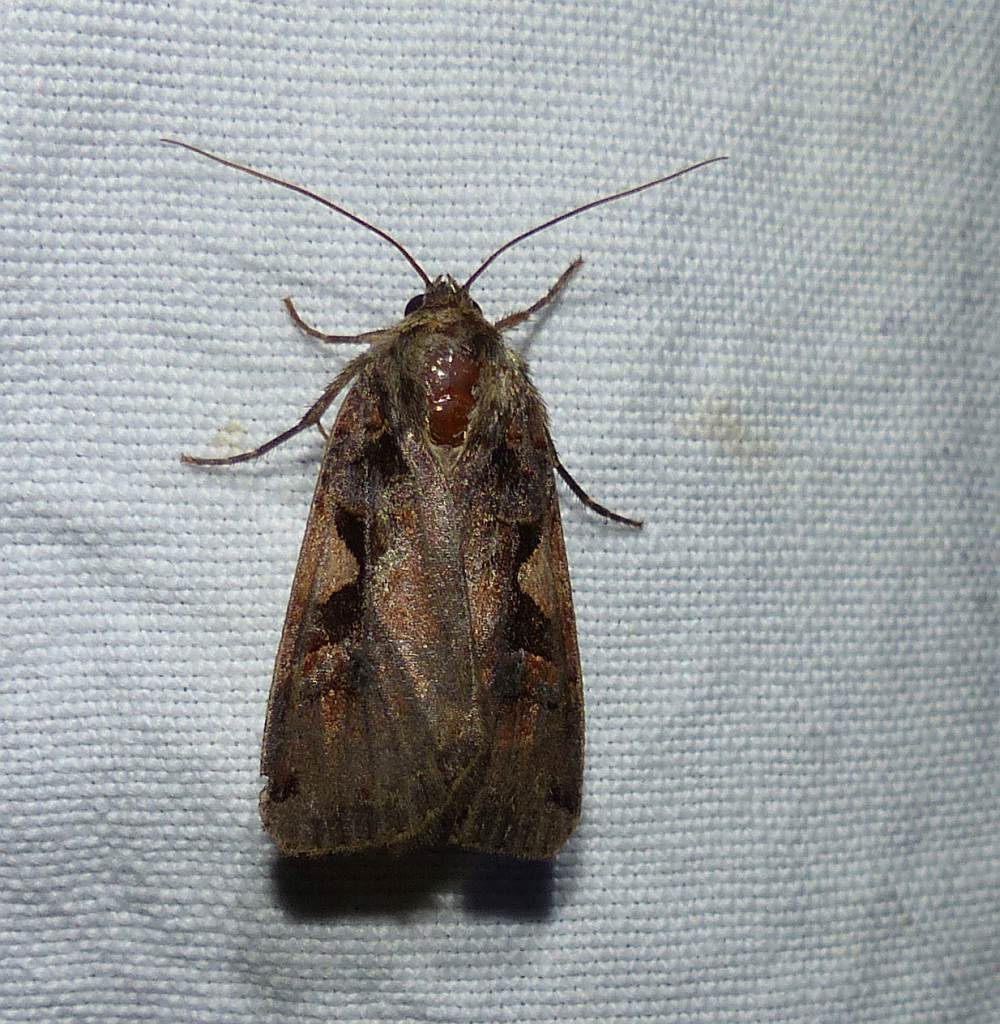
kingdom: Animalia
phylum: Arthropoda
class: Insecta
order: Lepidoptera
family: Noctuidae
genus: Xestia
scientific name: Xestia
